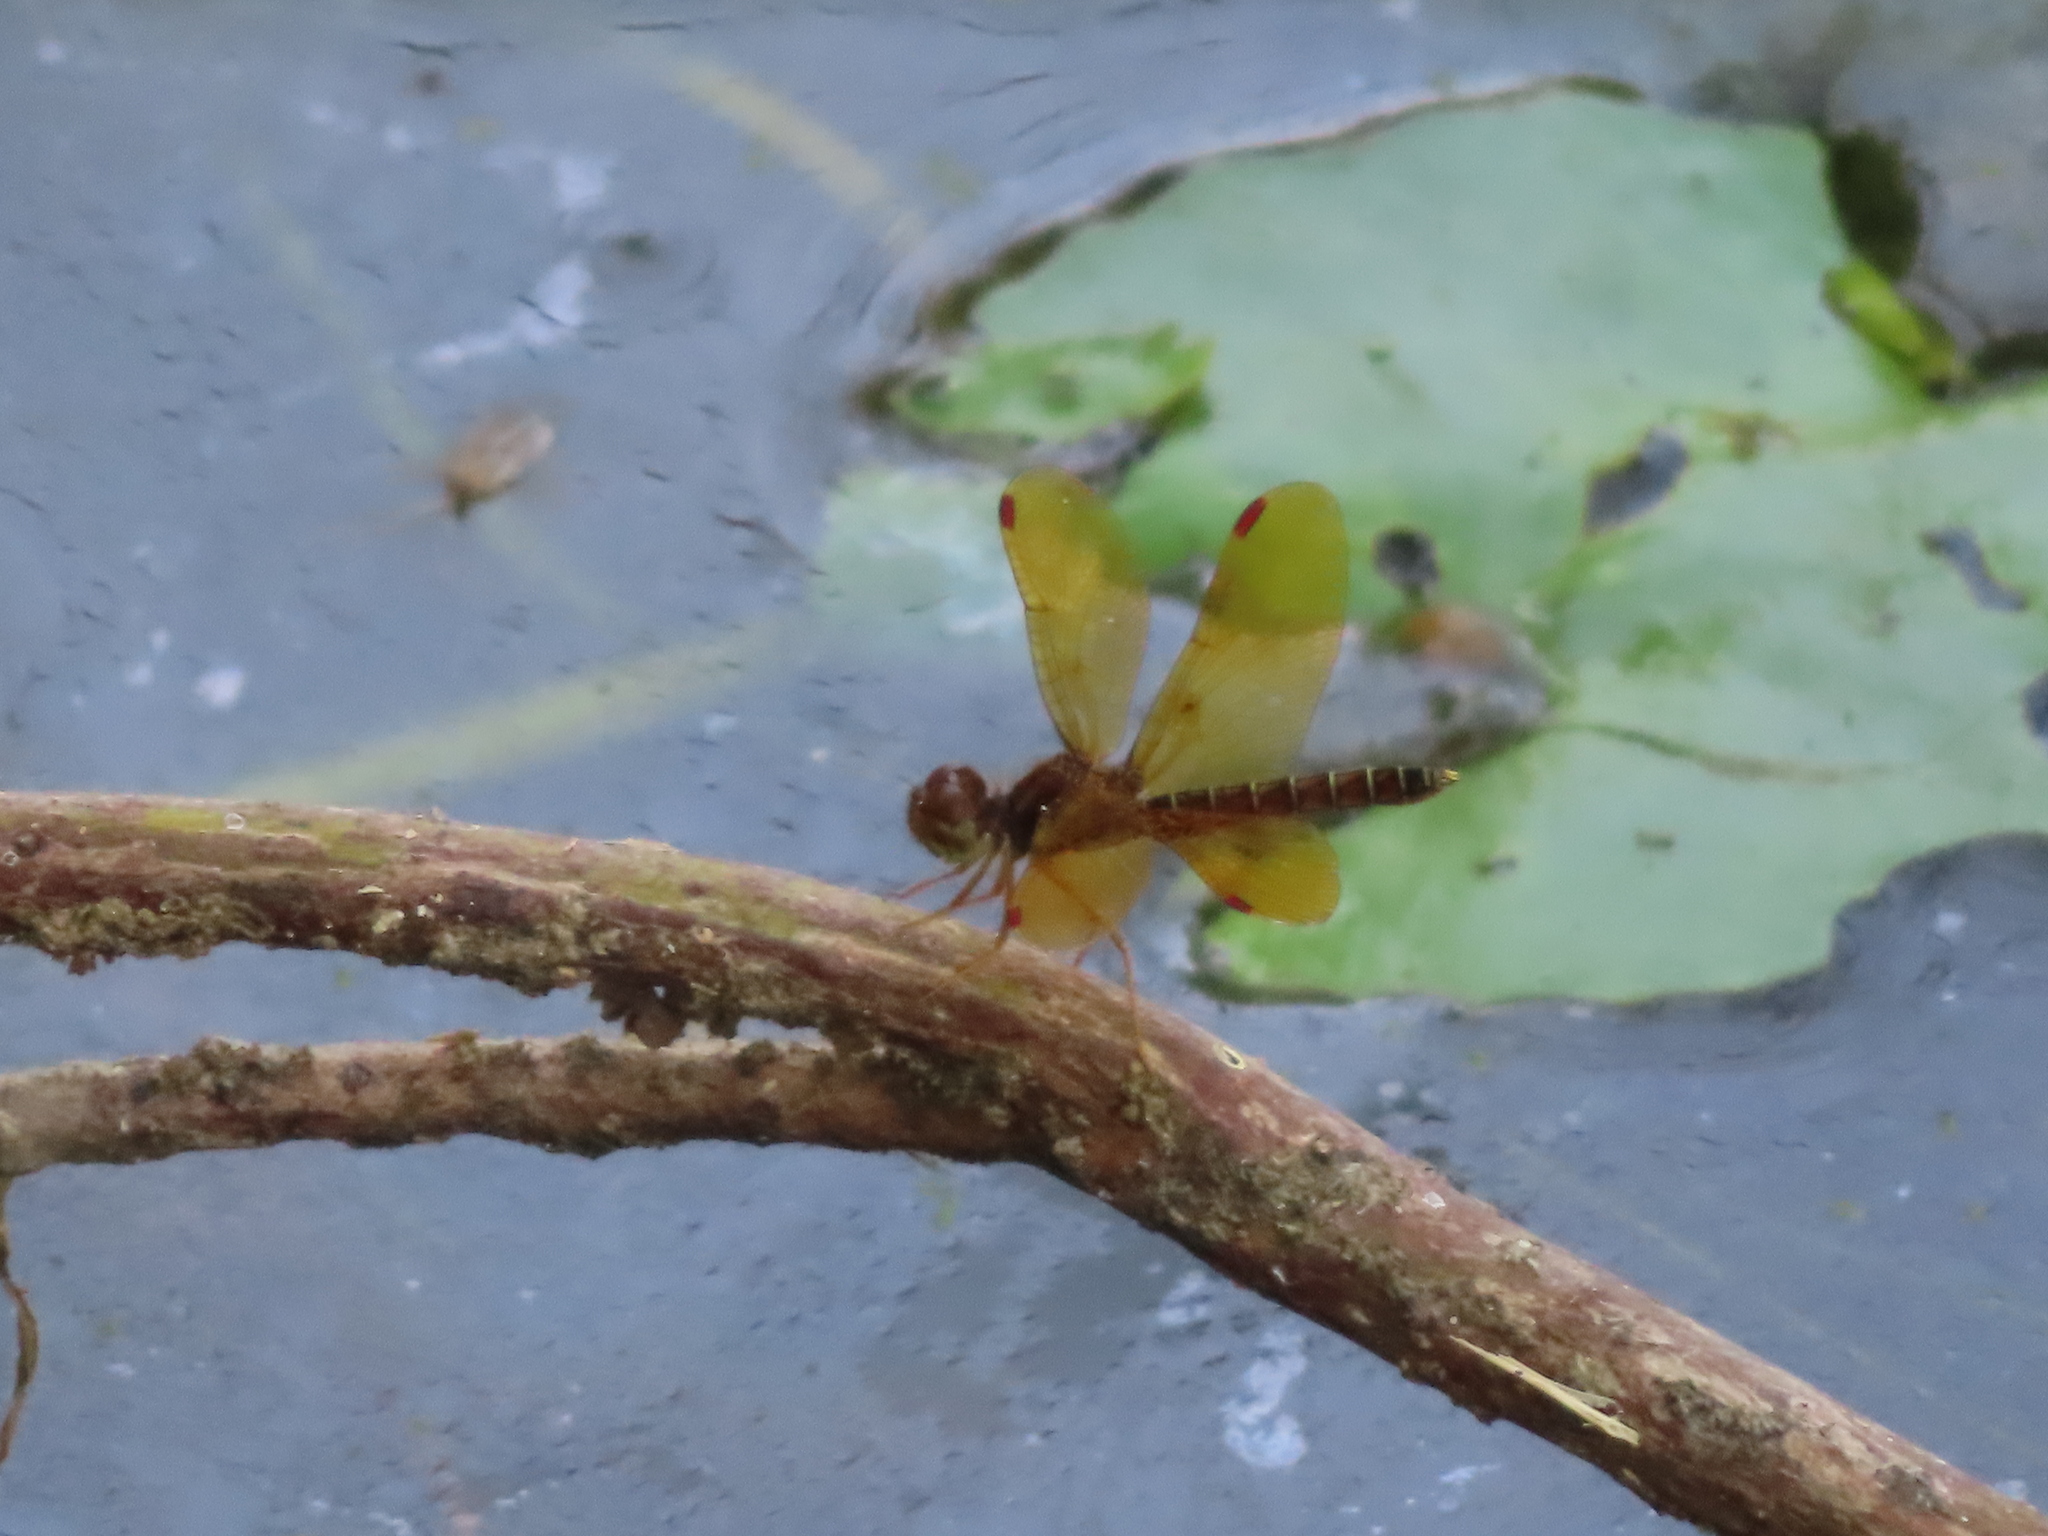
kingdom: Animalia
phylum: Arthropoda
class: Insecta
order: Odonata
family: Libellulidae
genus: Perithemis
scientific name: Perithemis tenera
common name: Eastern amberwing
